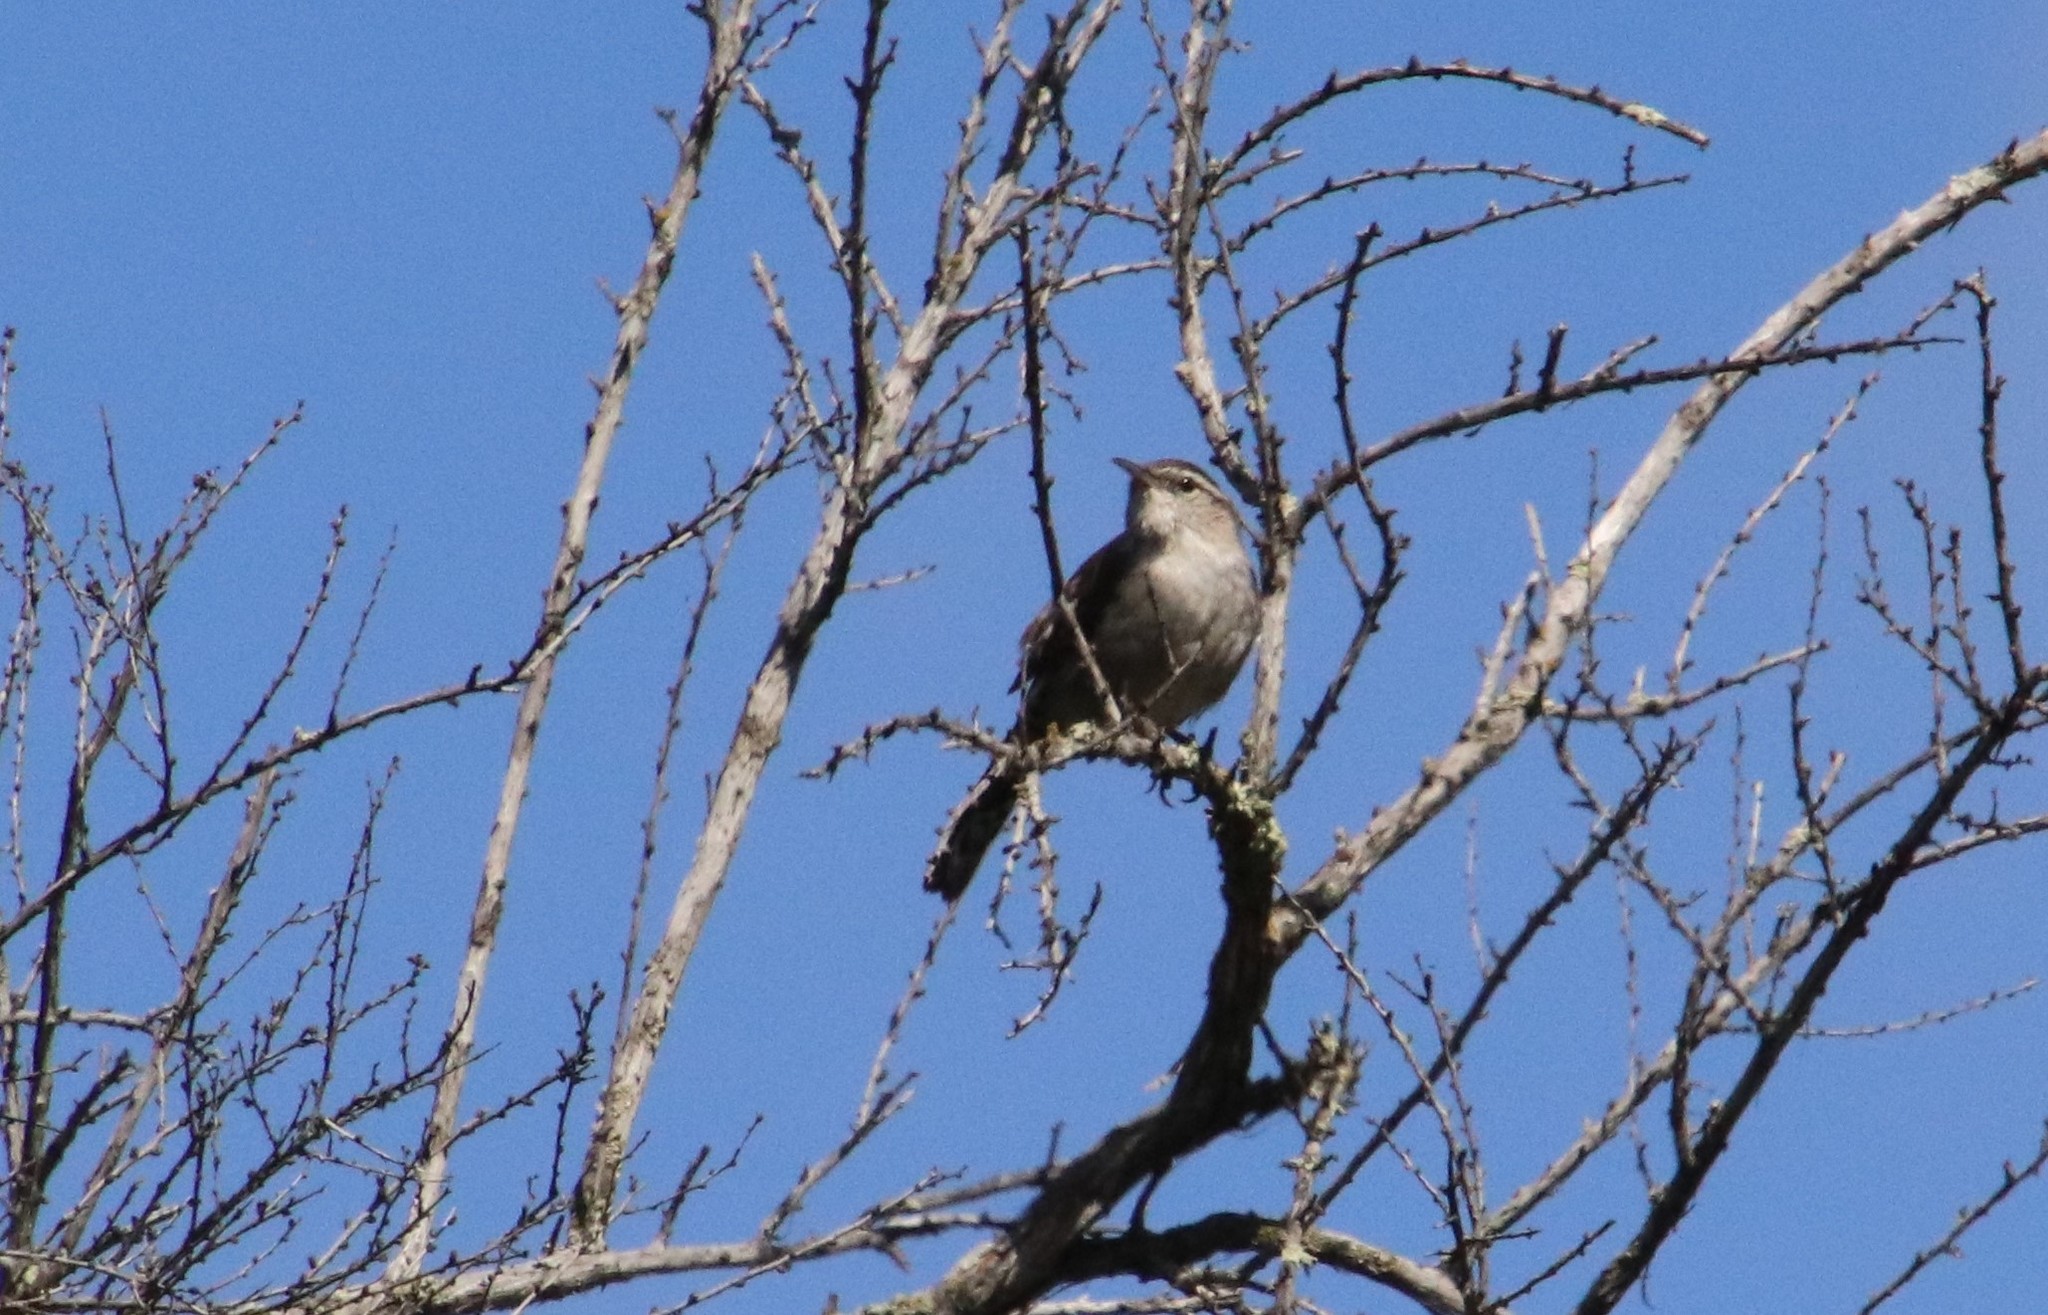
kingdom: Animalia
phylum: Chordata
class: Aves
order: Passeriformes
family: Troglodytidae
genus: Thryomanes
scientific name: Thryomanes bewickii
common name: Bewick's wren
